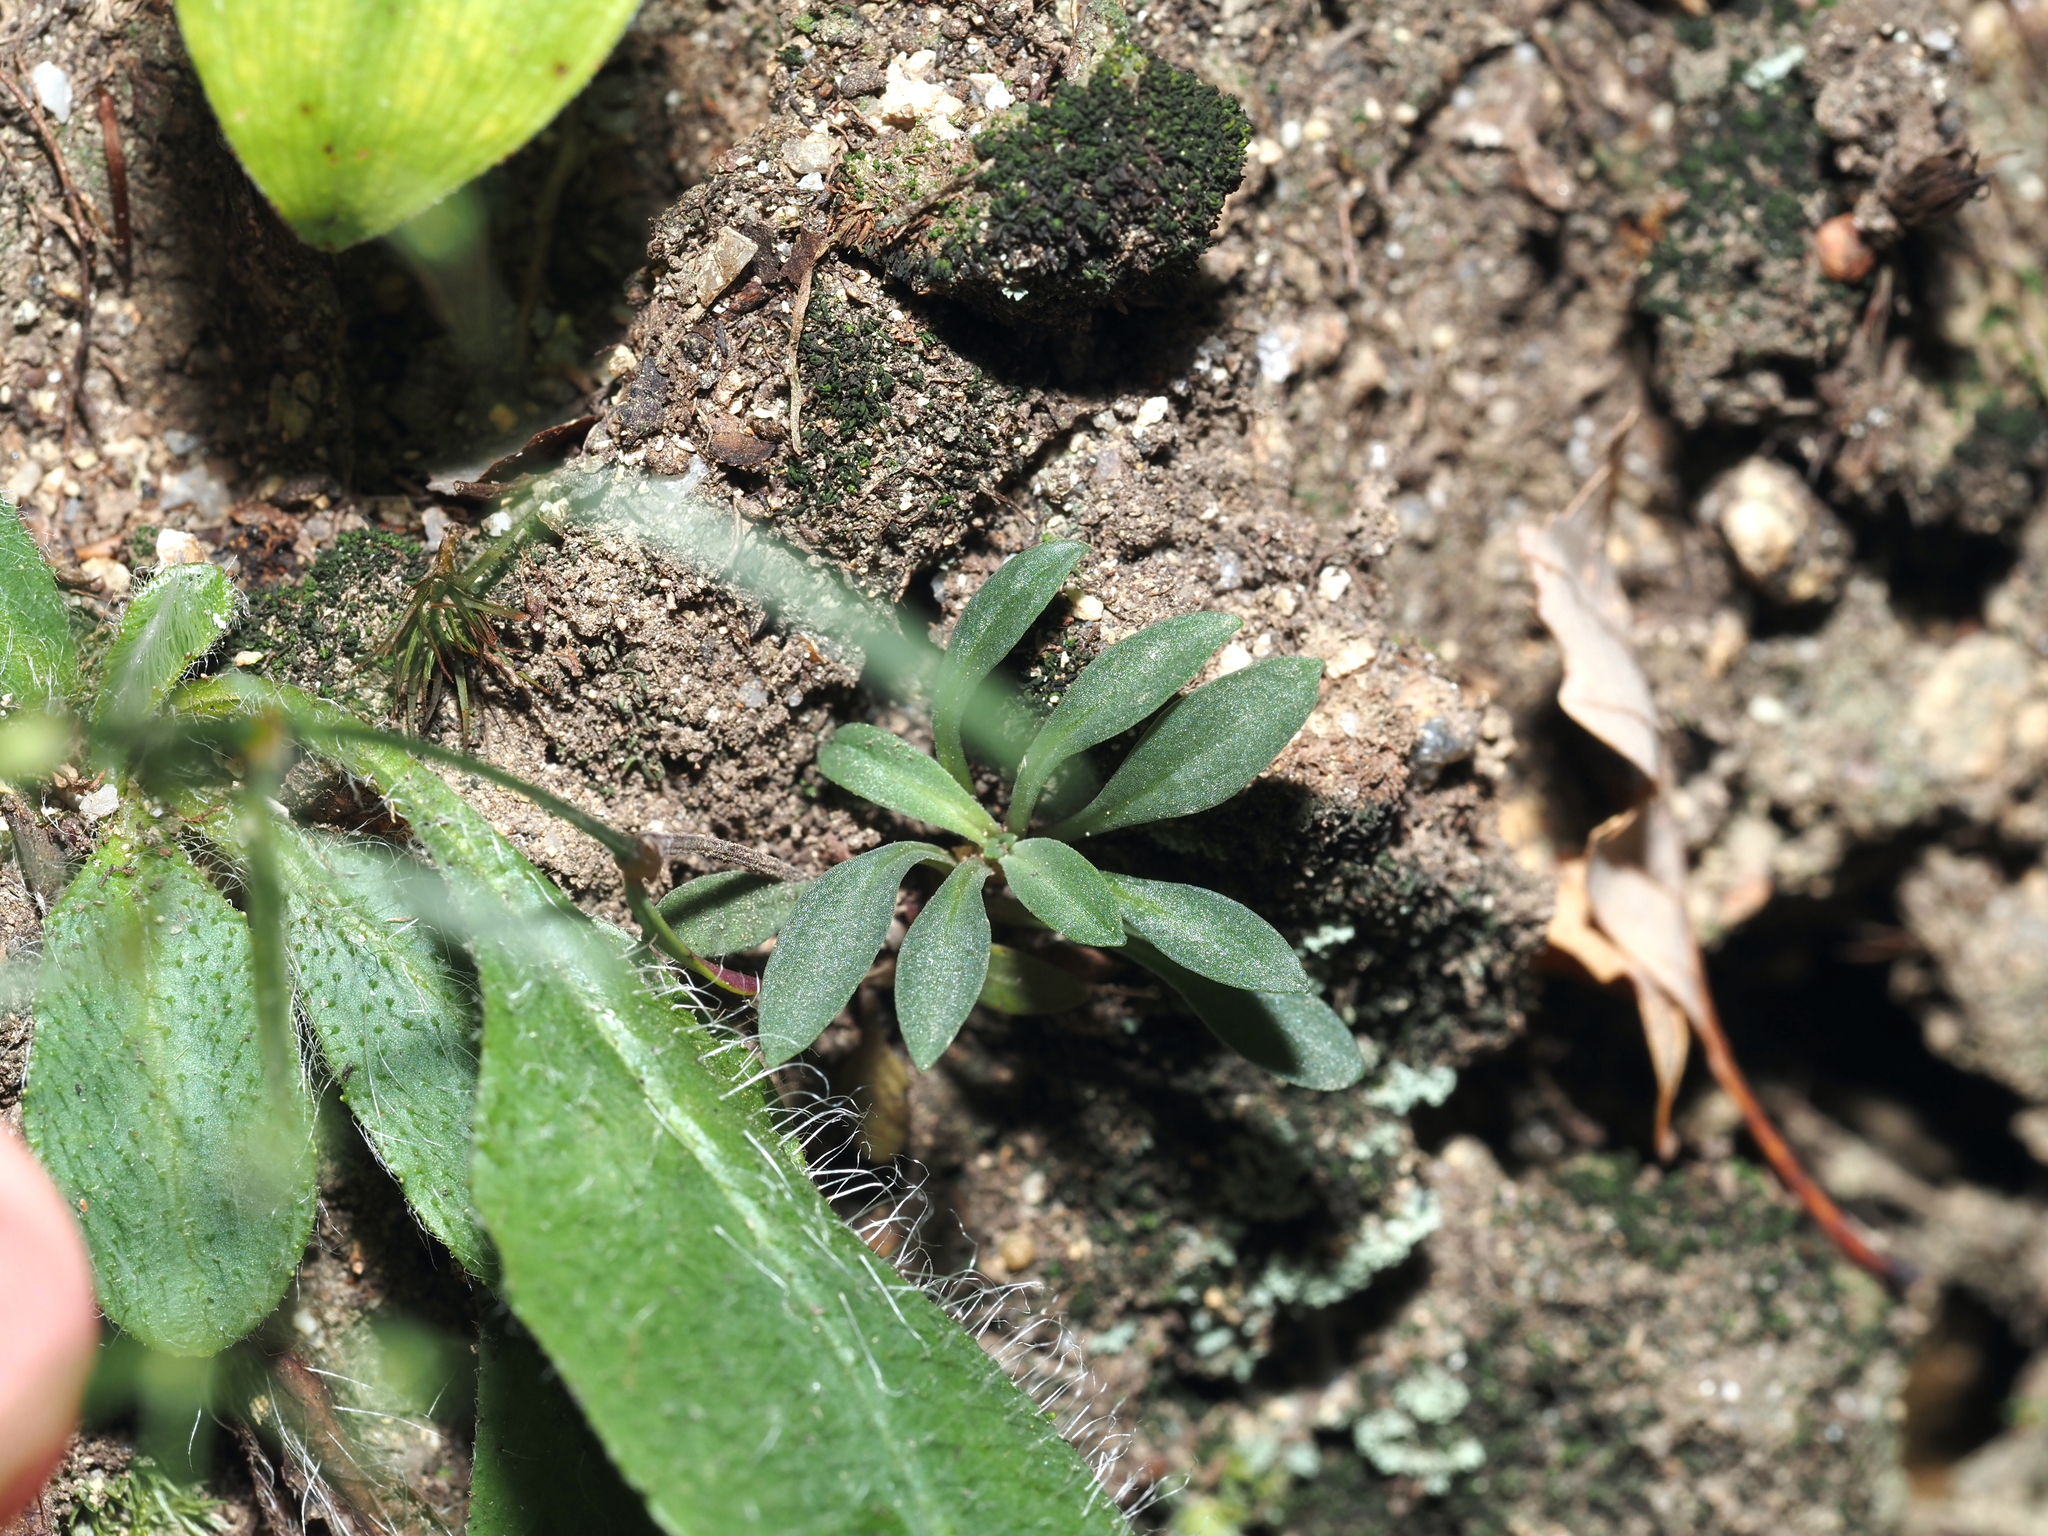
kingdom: Plantae
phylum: Tracheophyta
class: Magnoliopsida
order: Gentianales
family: Rubiaceae
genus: Houstonia
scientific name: Houstonia longifolia
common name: Long-leaved bluets
